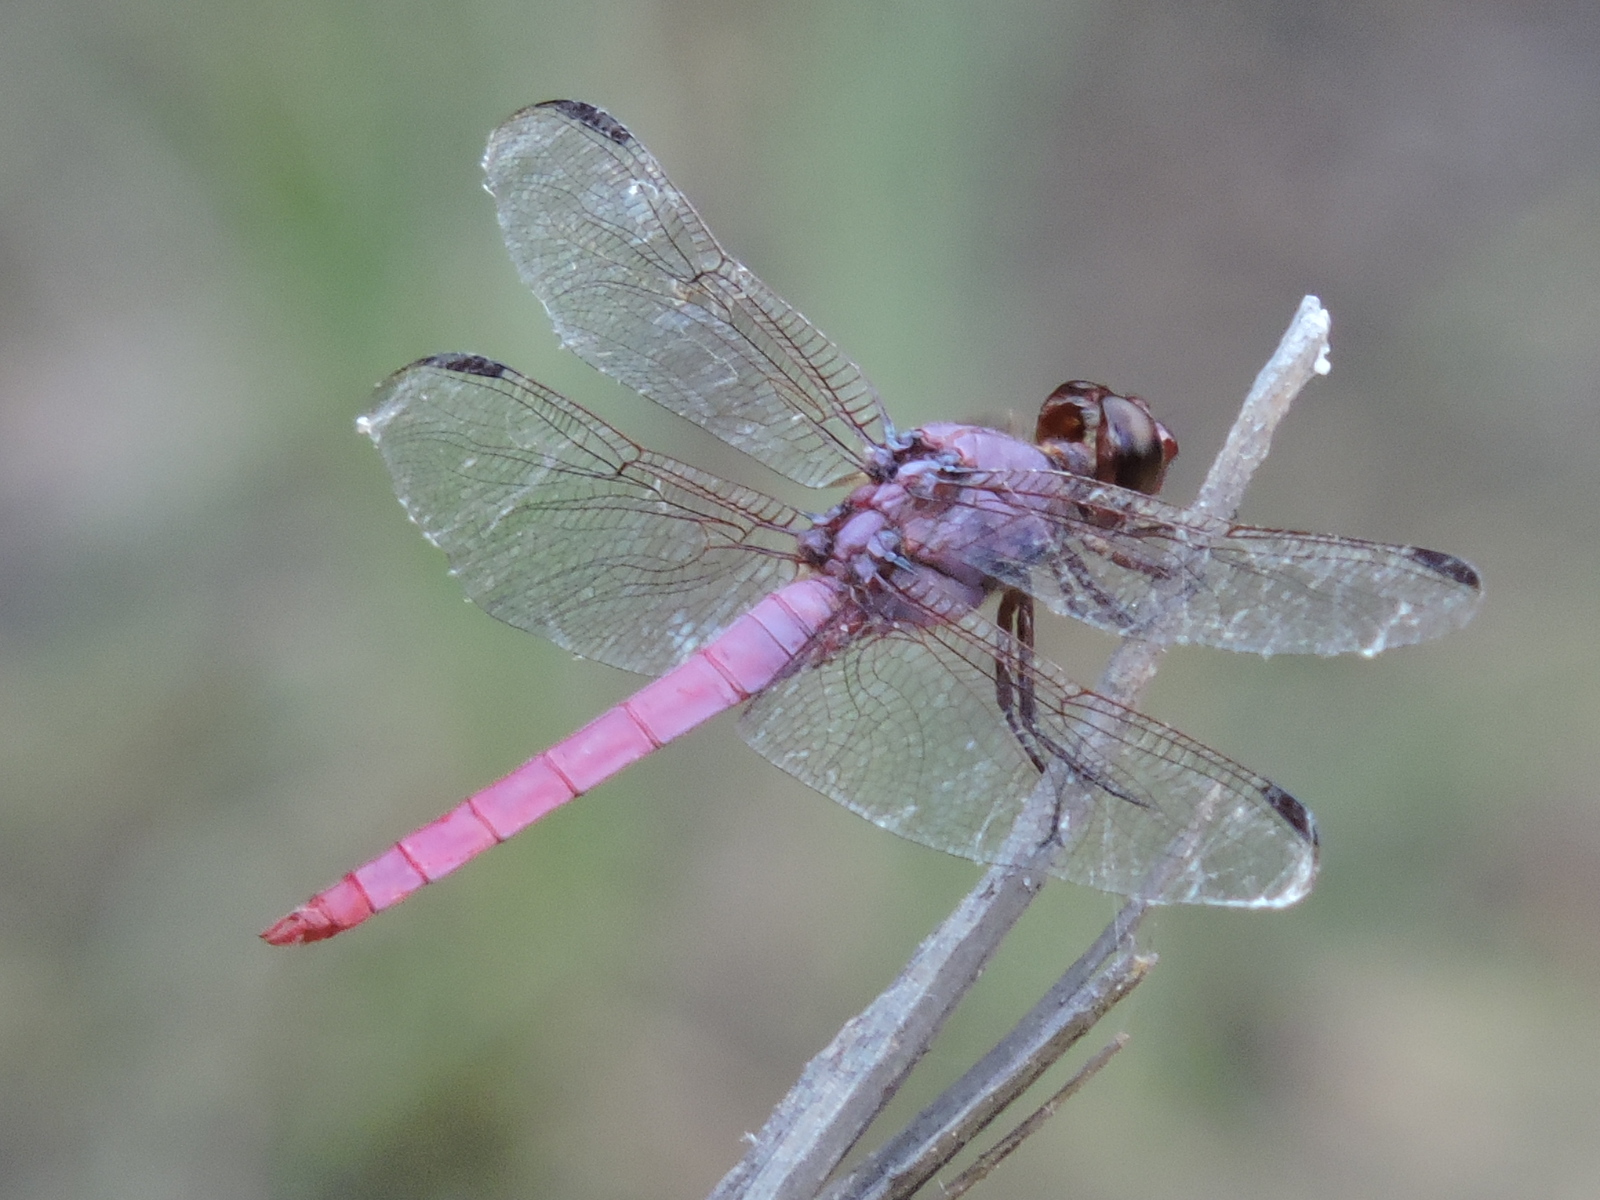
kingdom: Animalia
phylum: Arthropoda
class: Insecta
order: Odonata
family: Libellulidae
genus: Orthemis
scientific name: Orthemis ferruginea
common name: Roseate skimmer
